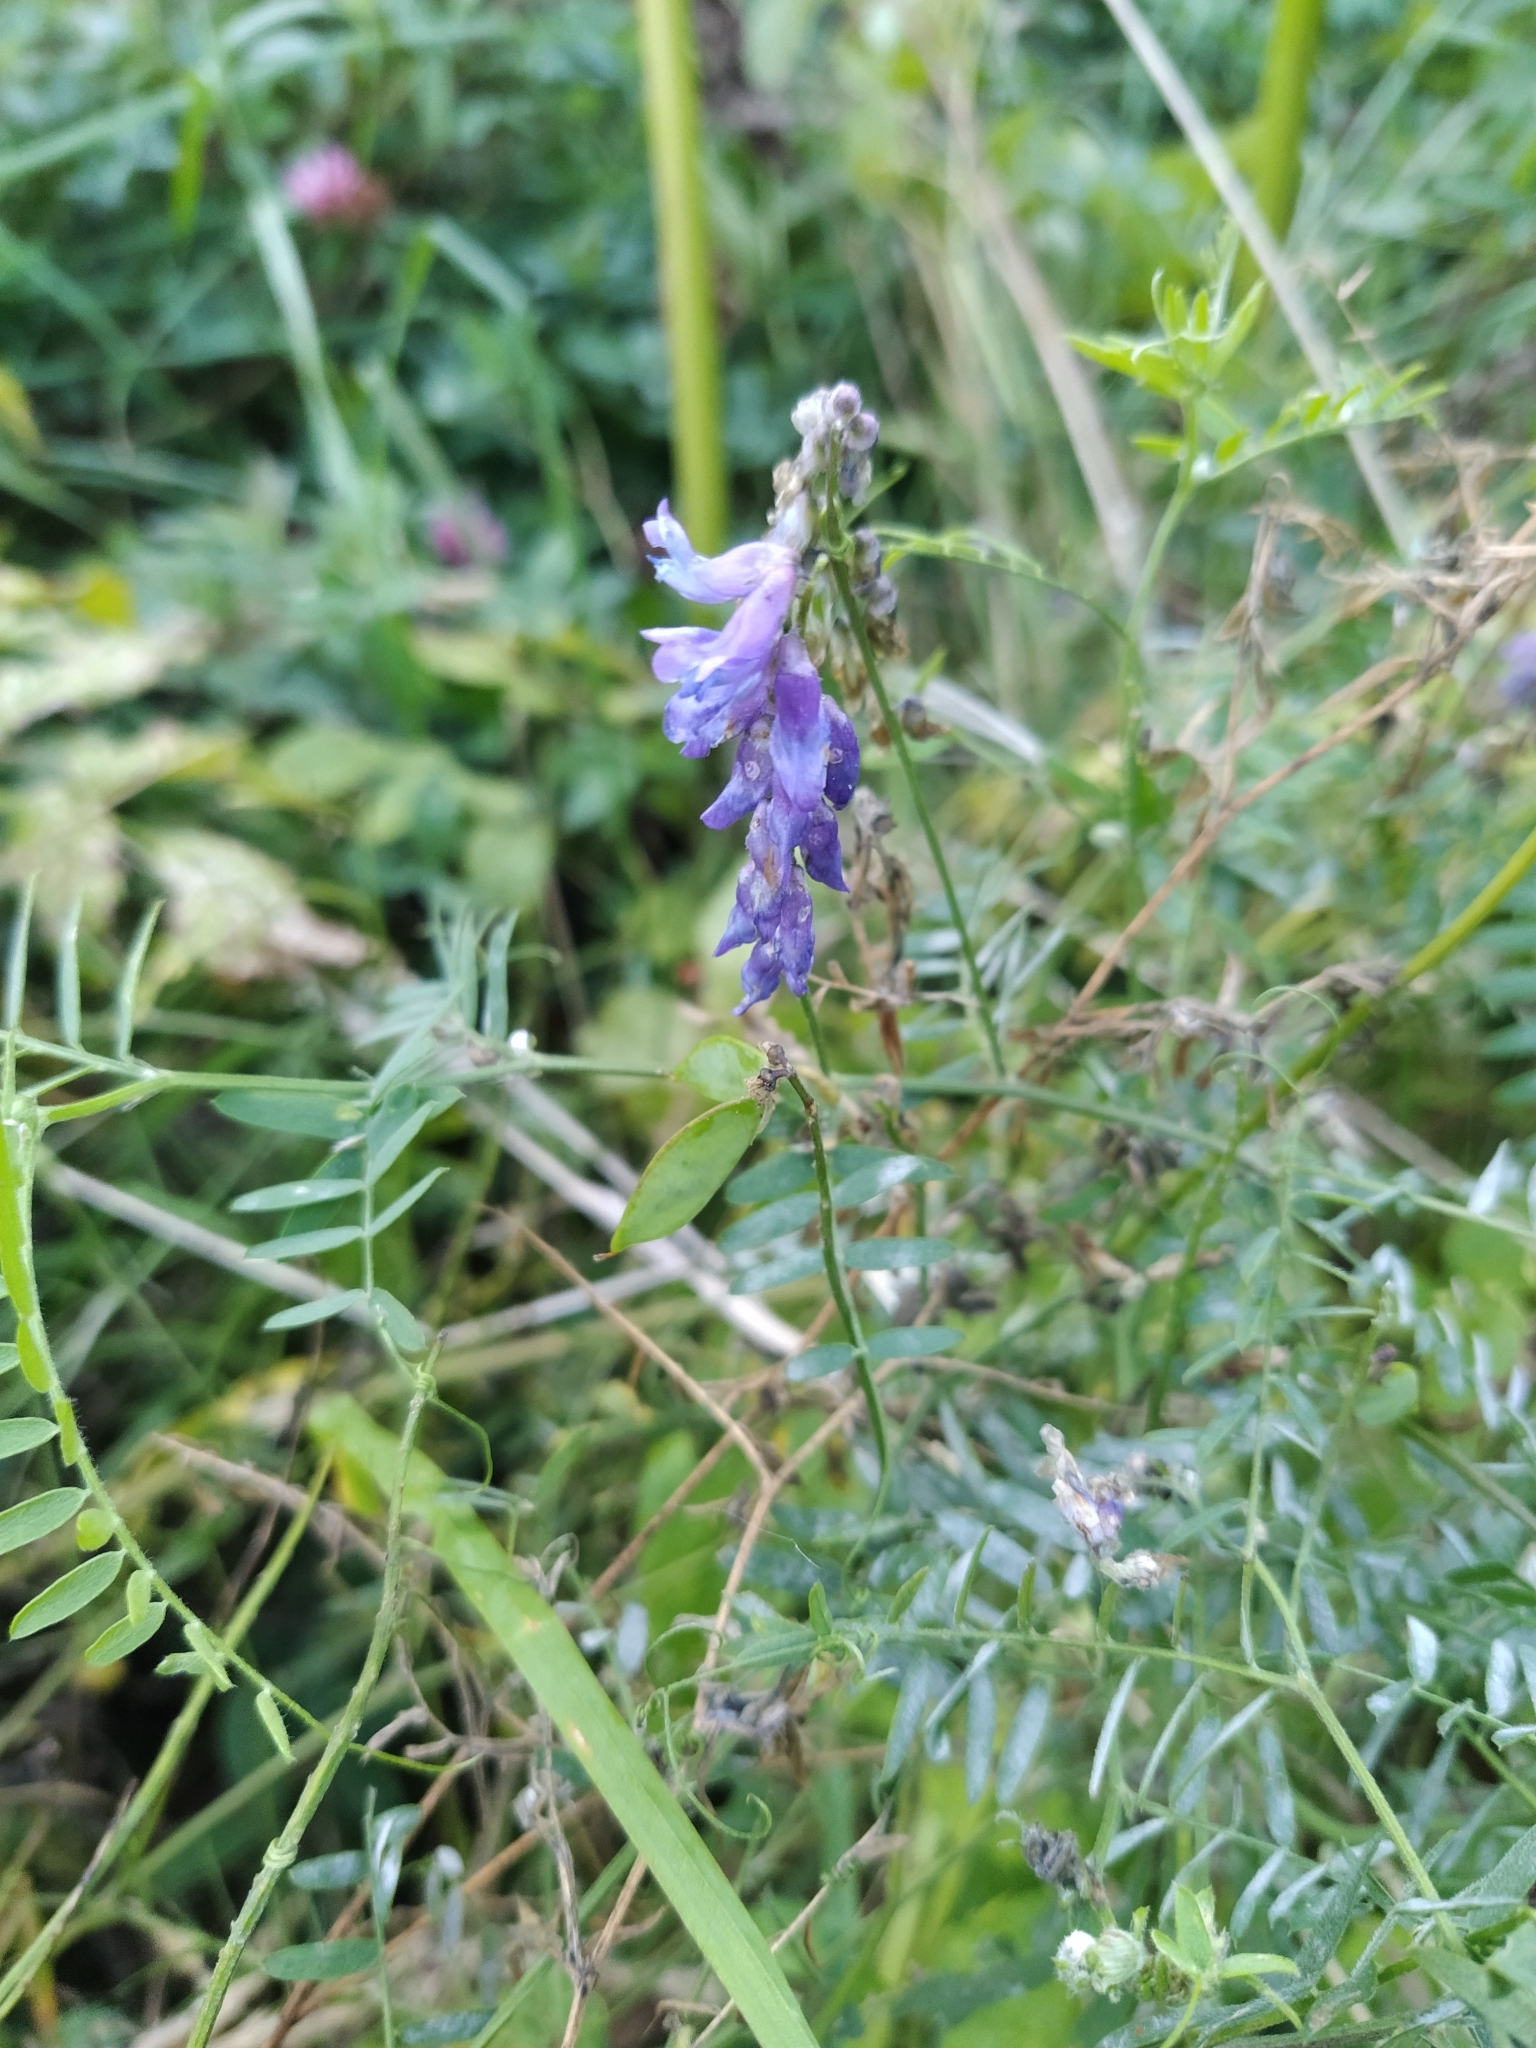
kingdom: Plantae
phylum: Tracheophyta
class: Magnoliopsida
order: Fabales
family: Fabaceae
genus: Vicia
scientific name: Vicia cracca
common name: Bird vetch
